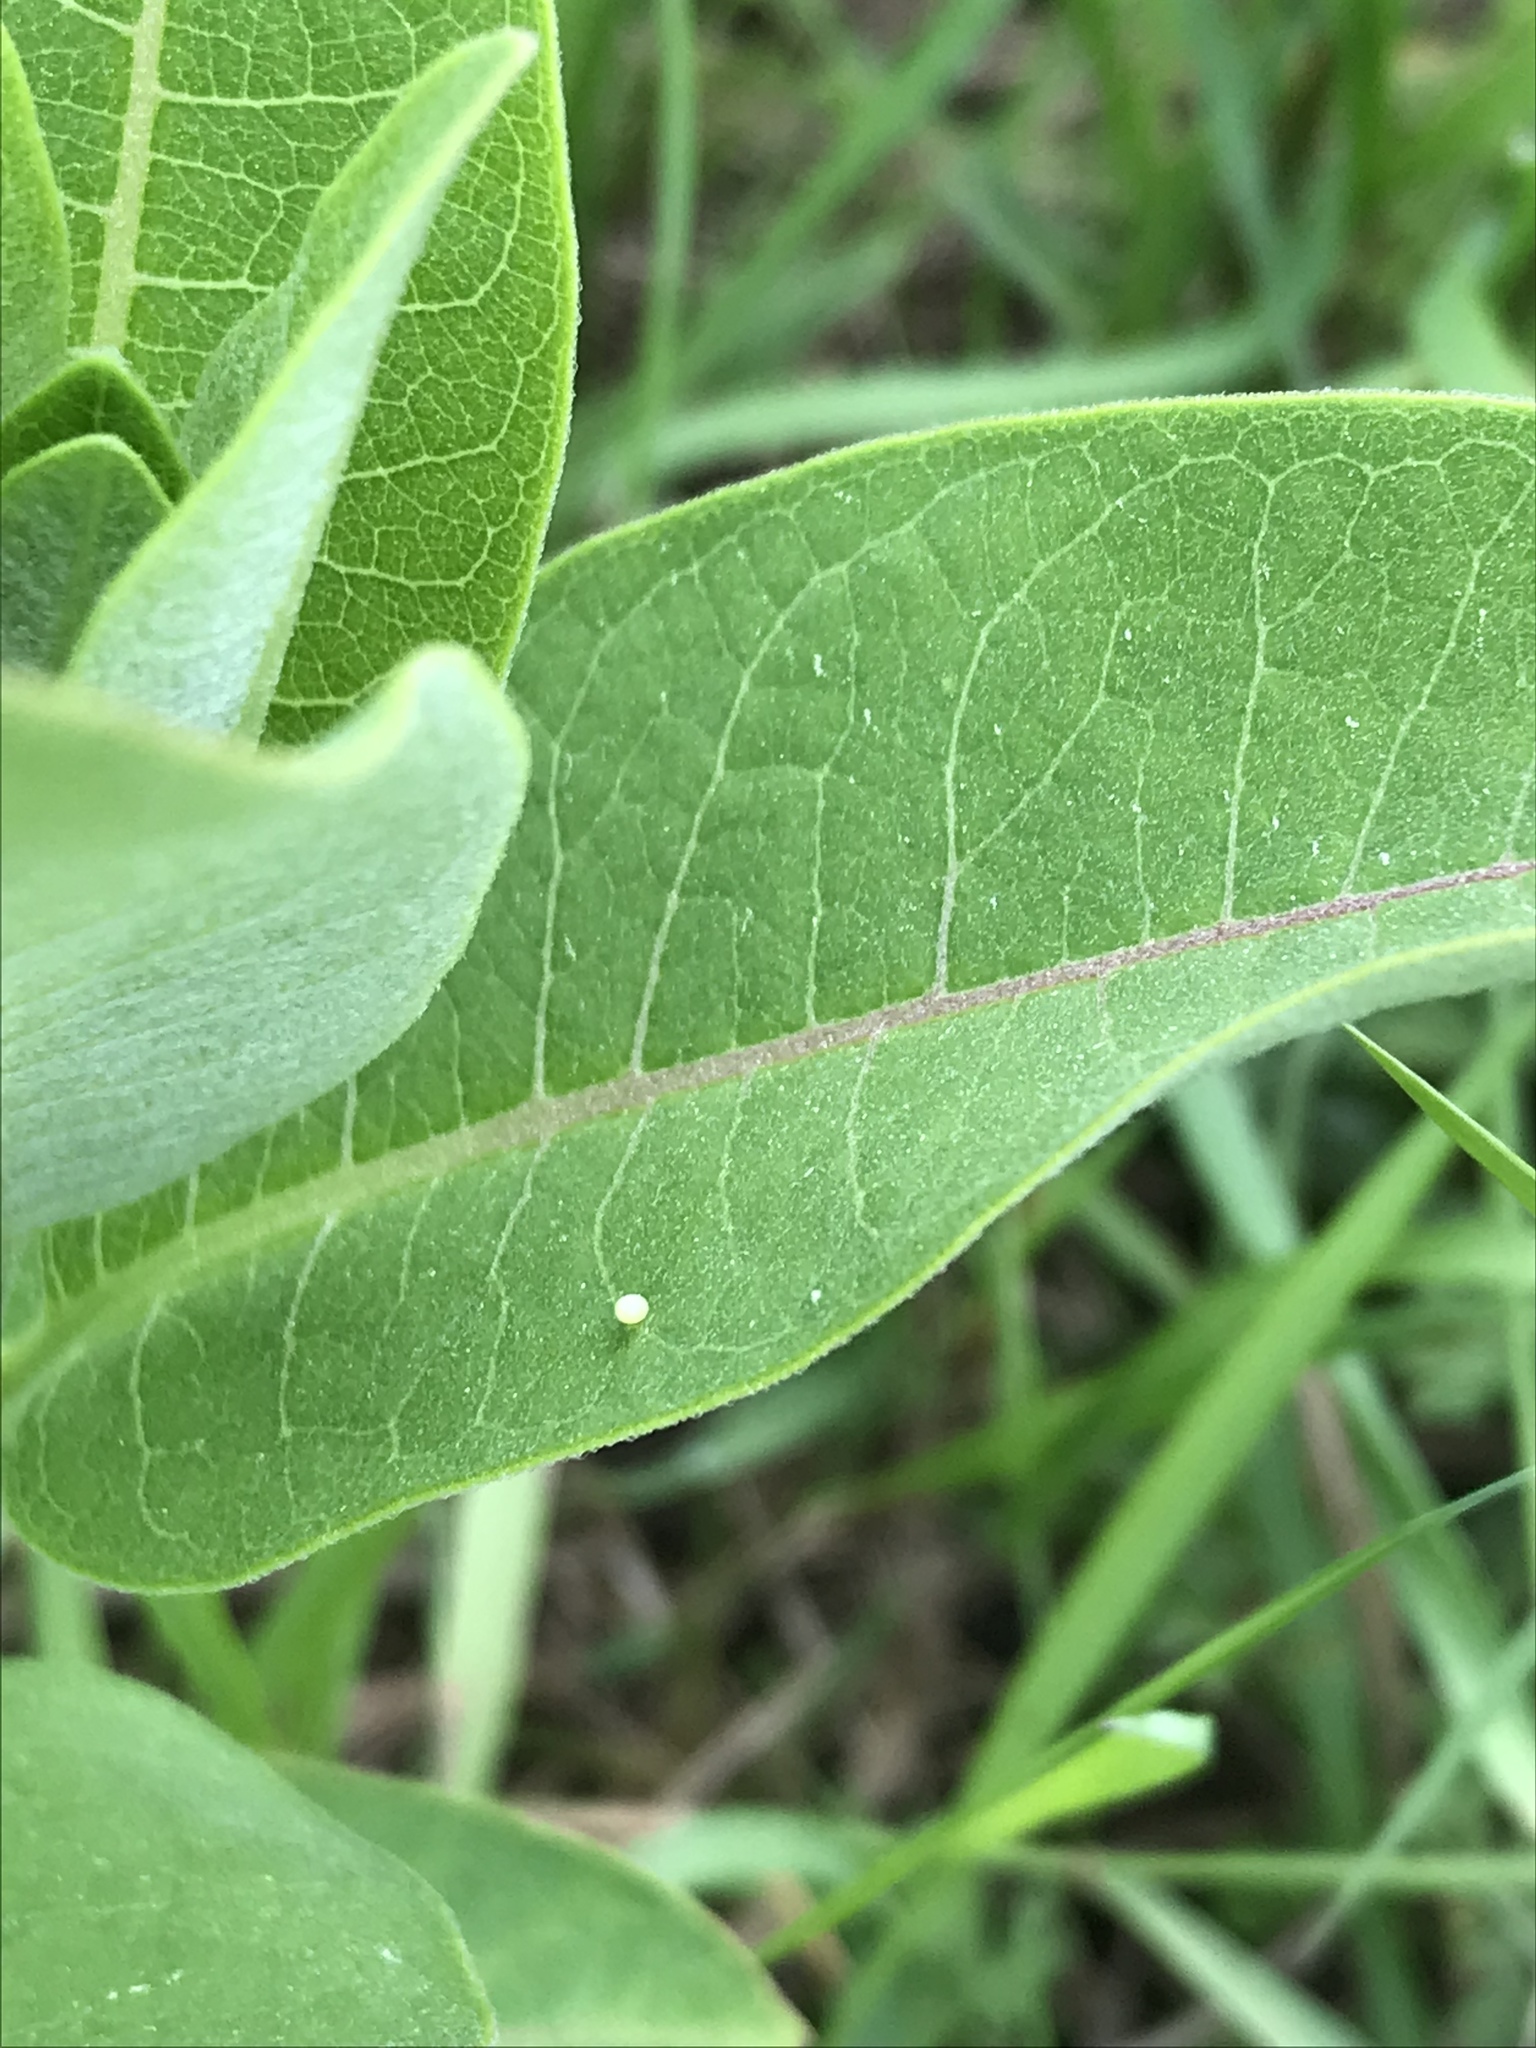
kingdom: Animalia
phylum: Arthropoda
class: Insecta
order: Lepidoptera
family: Nymphalidae
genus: Danaus
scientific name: Danaus plexippus
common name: Monarch
